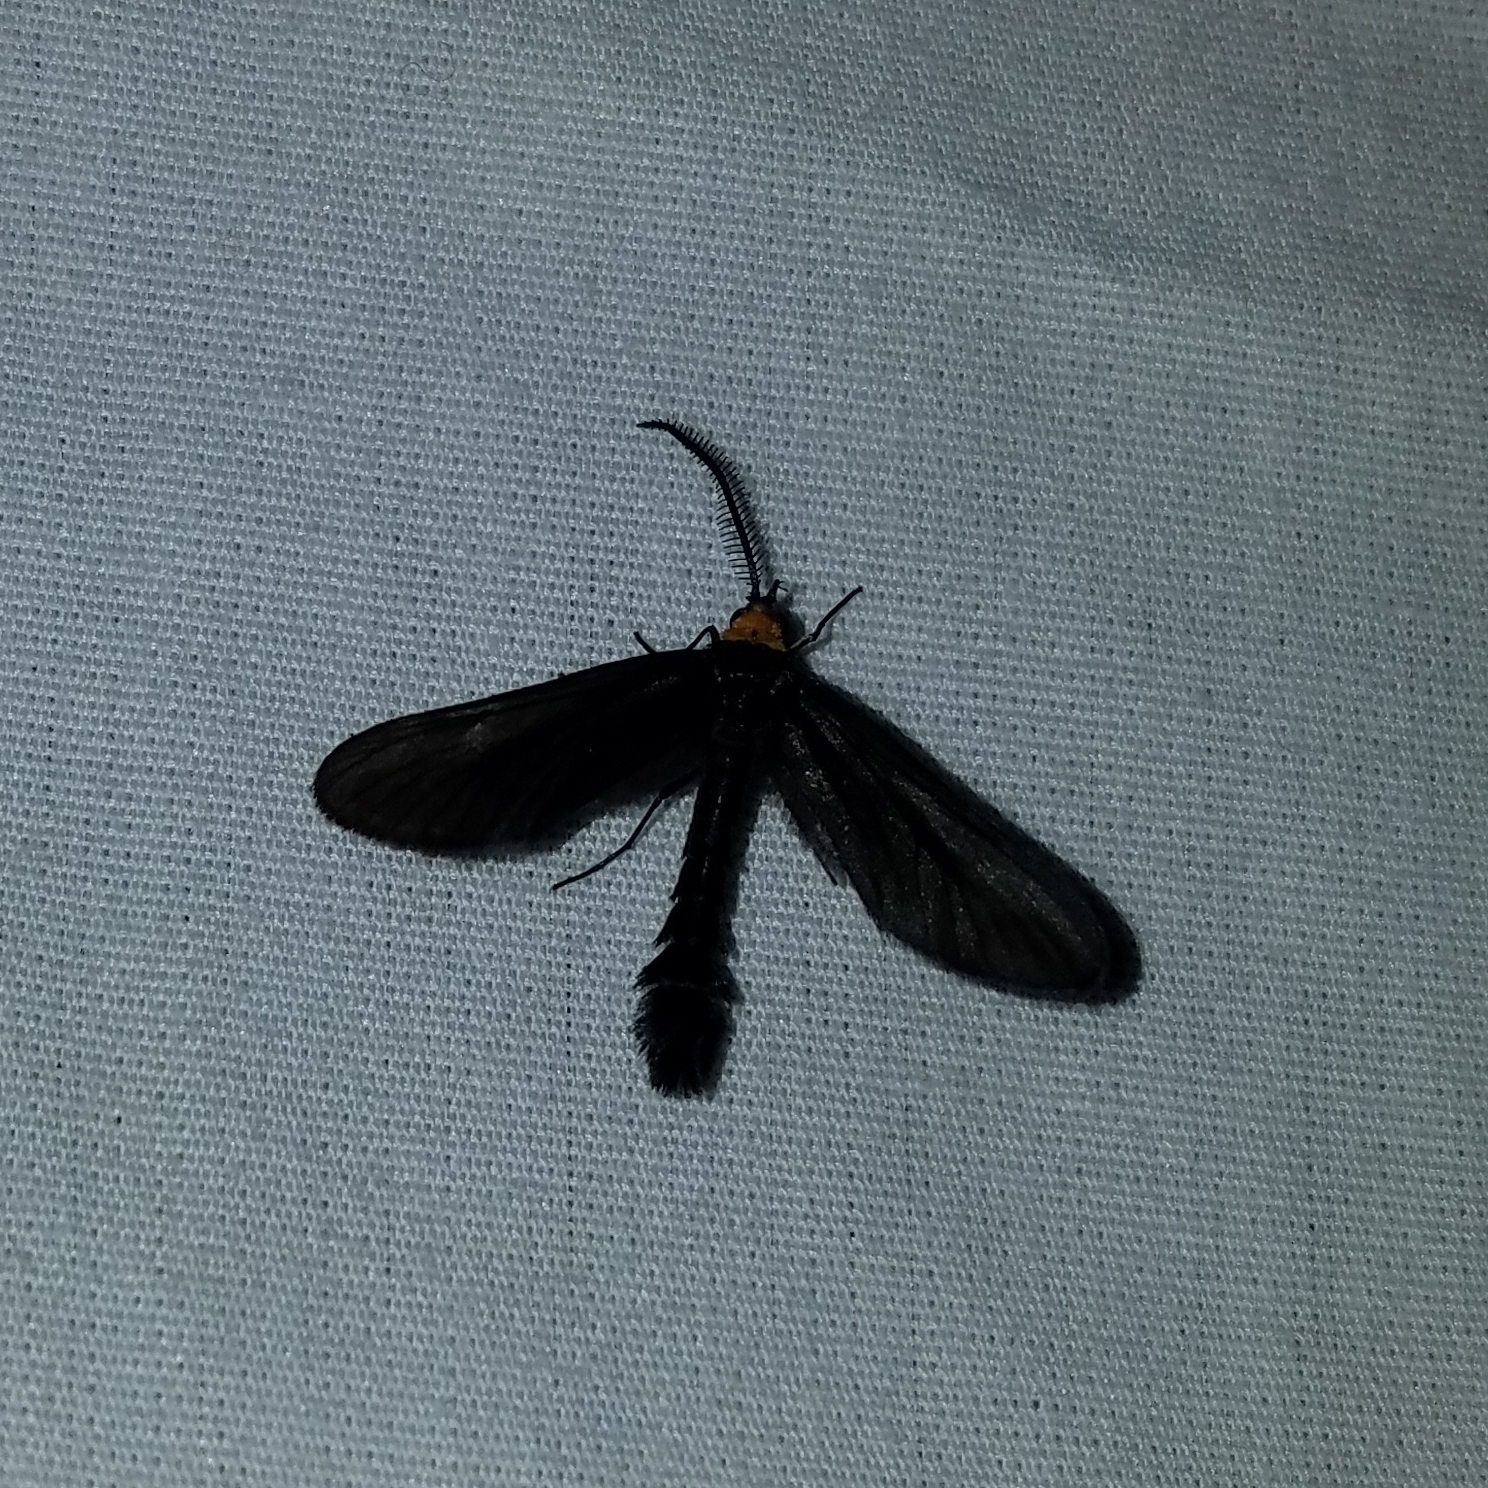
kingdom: Animalia
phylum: Arthropoda
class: Insecta
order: Lepidoptera
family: Zygaenidae
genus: Harrisina
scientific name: Harrisina americana
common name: Grapeleaf skeletonizer moth
